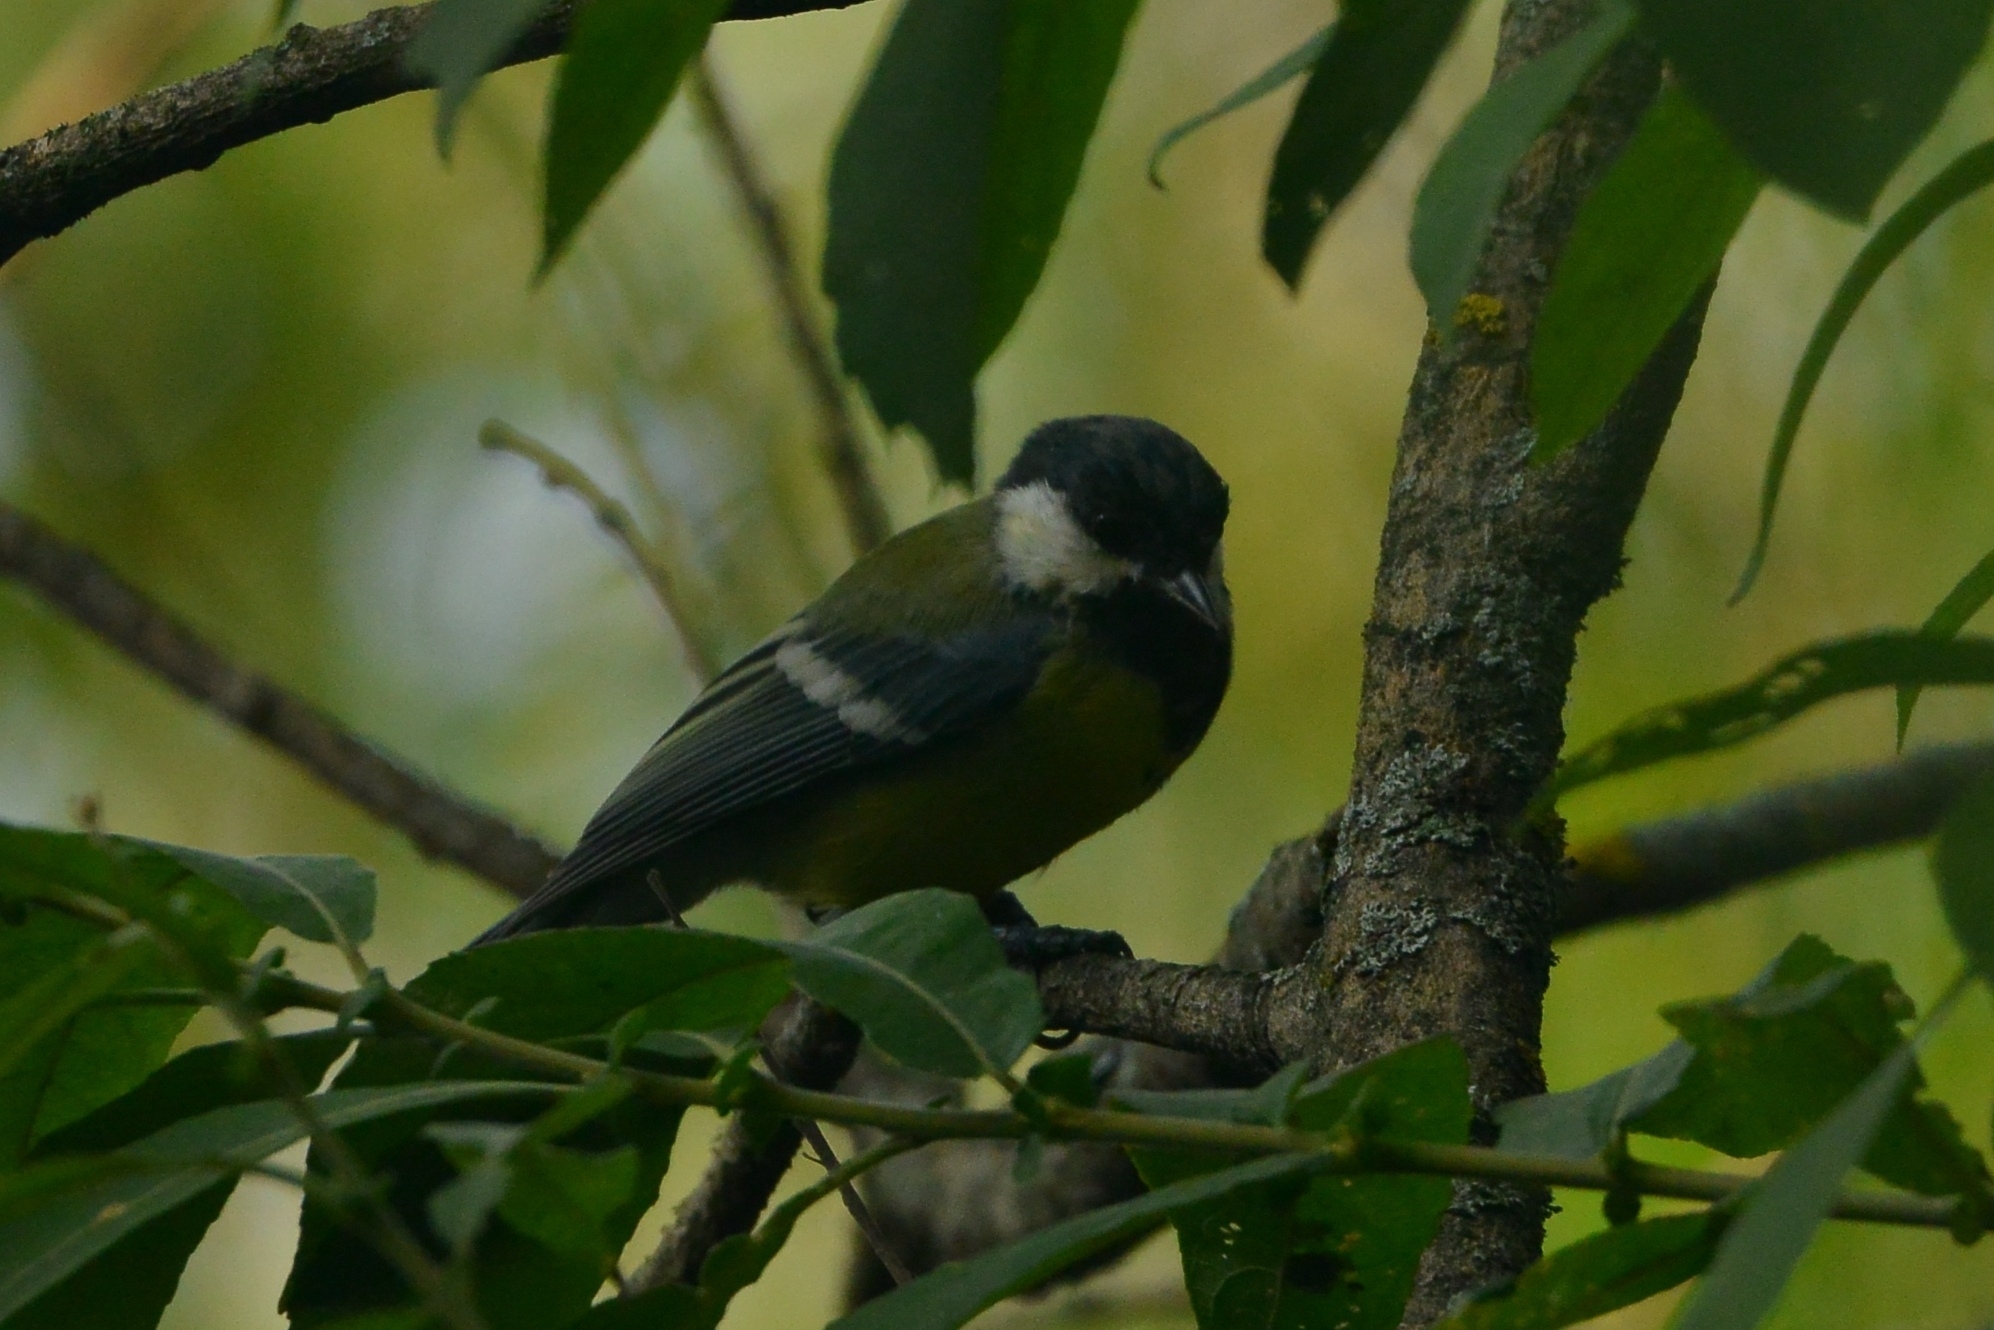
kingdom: Animalia
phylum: Chordata
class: Aves
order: Passeriformes
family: Paridae
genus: Parus
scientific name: Parus major
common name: Great tit
